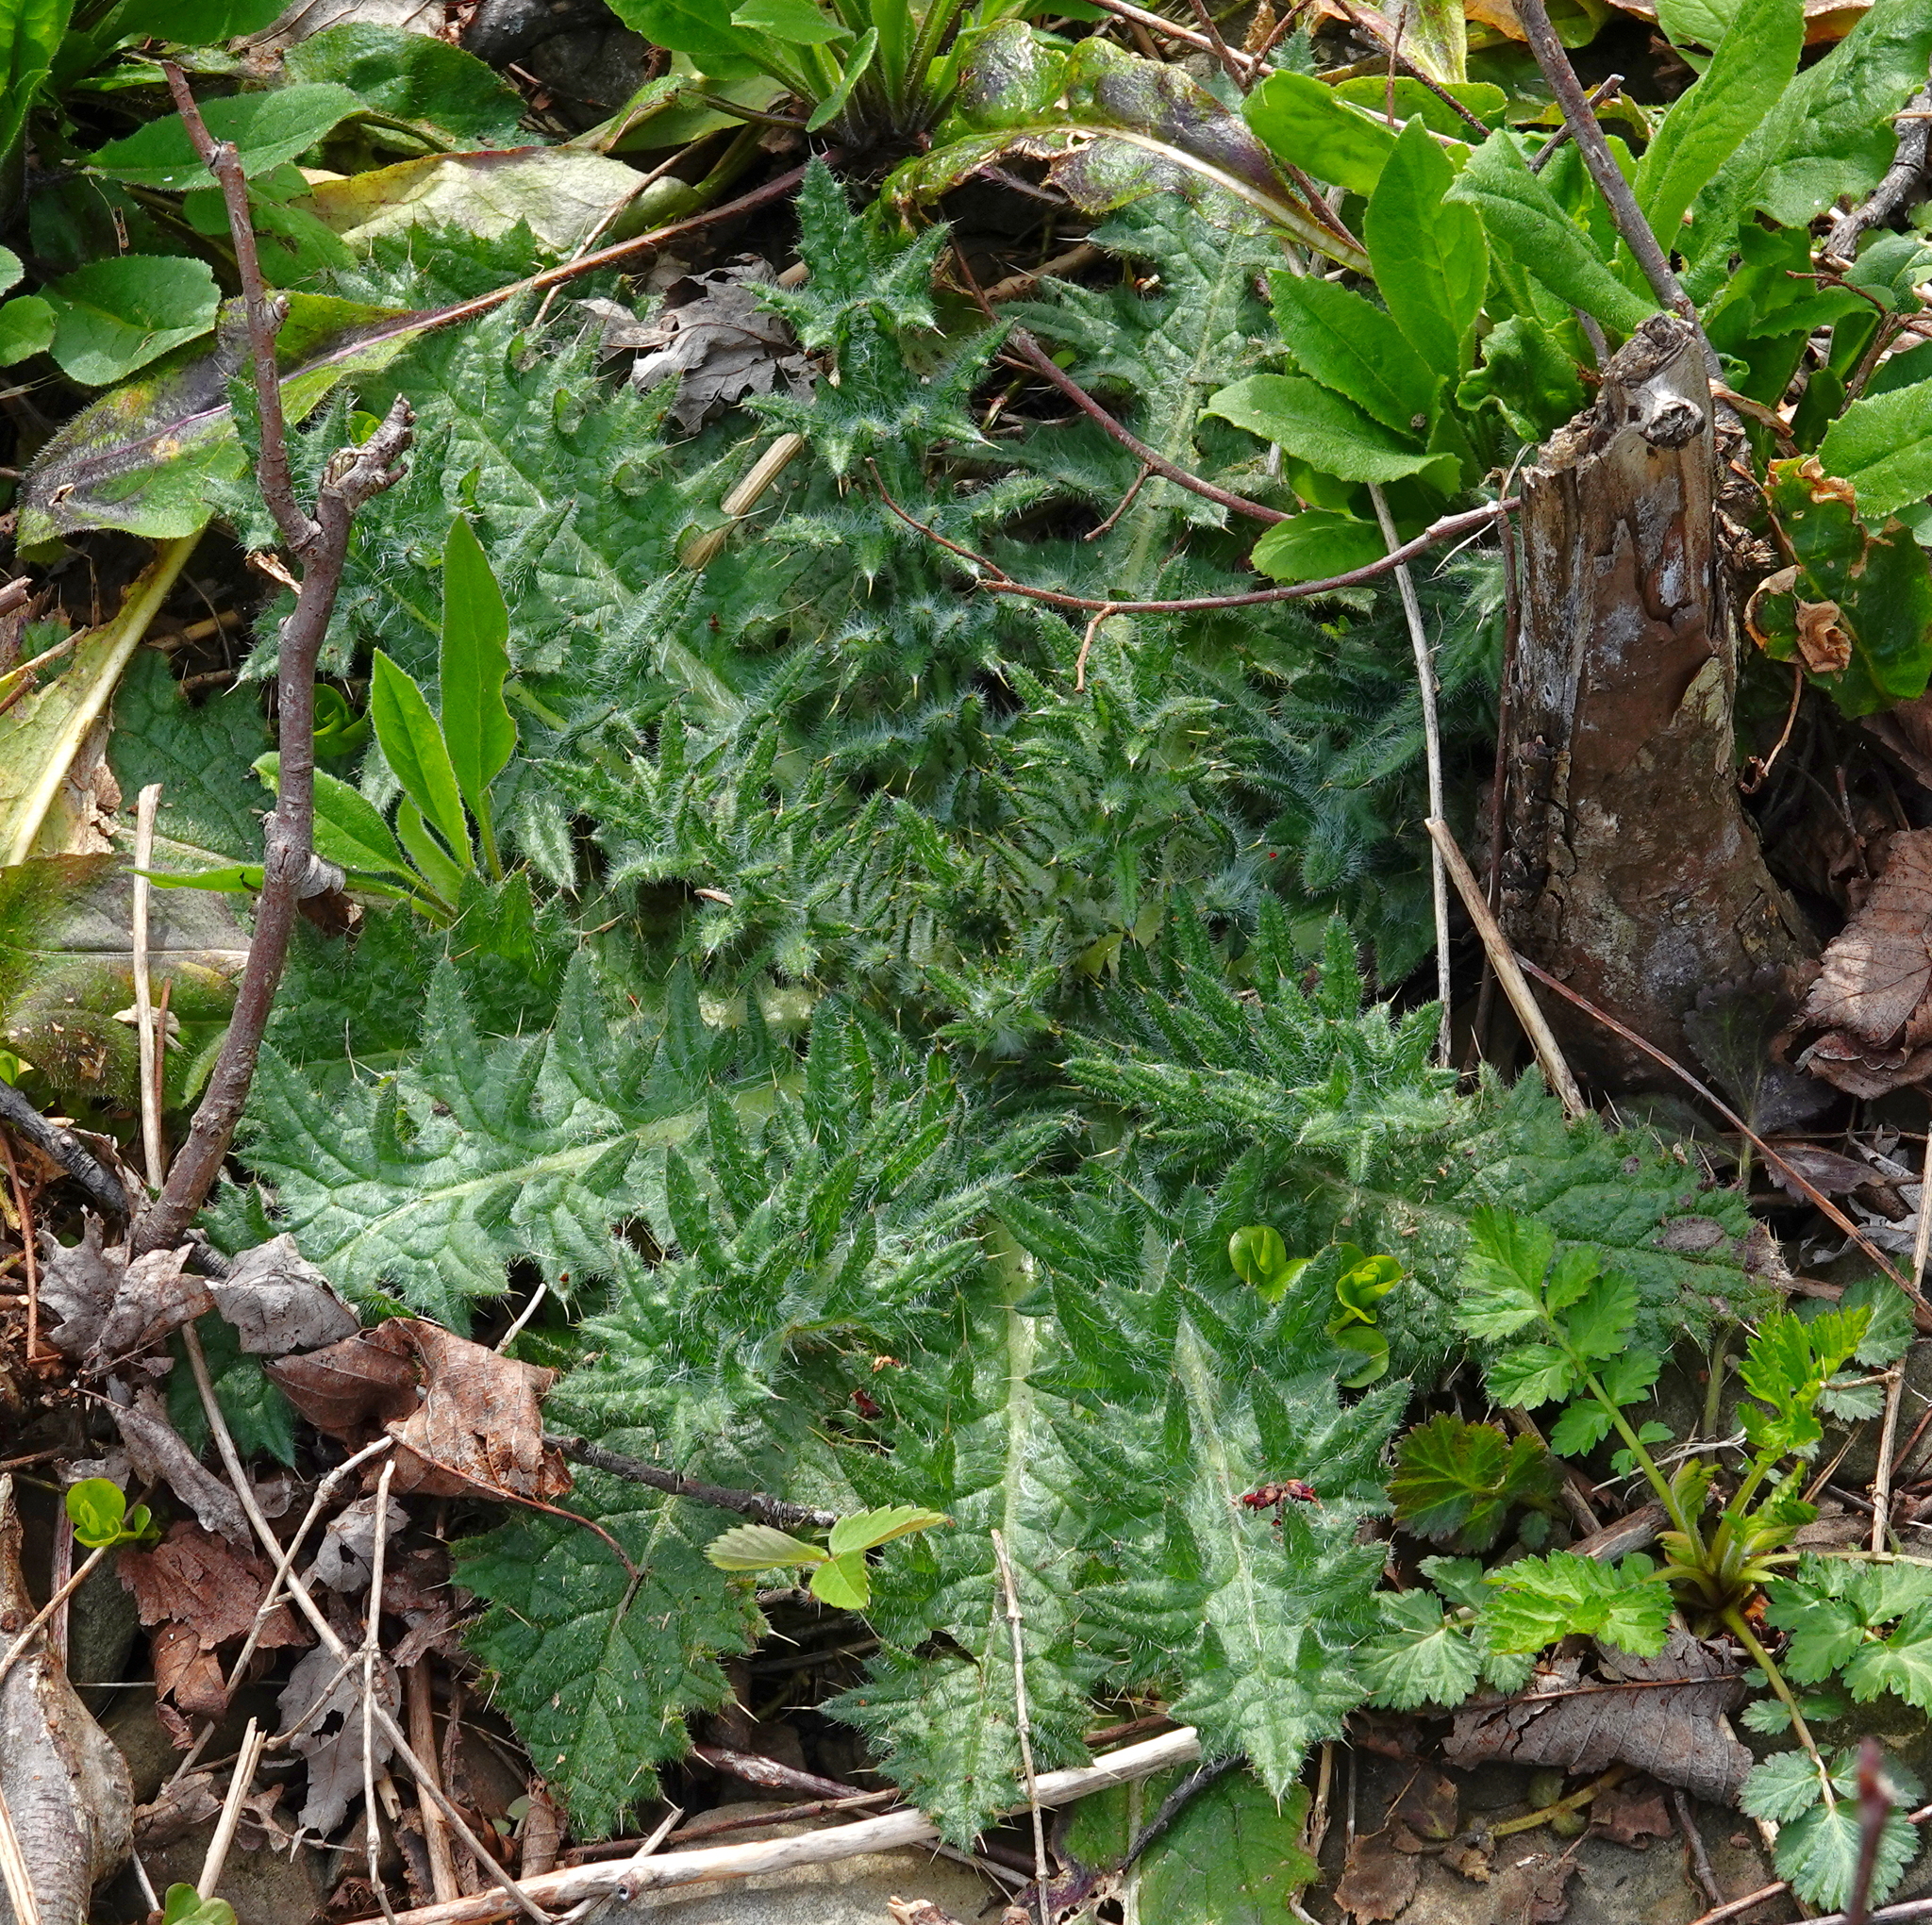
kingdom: Plantae
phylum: Tracheophyta
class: Magnoliopsida
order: Asterales
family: Asteraceae
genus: Cirsium
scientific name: Cirsium vulgare
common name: Bull thistle
